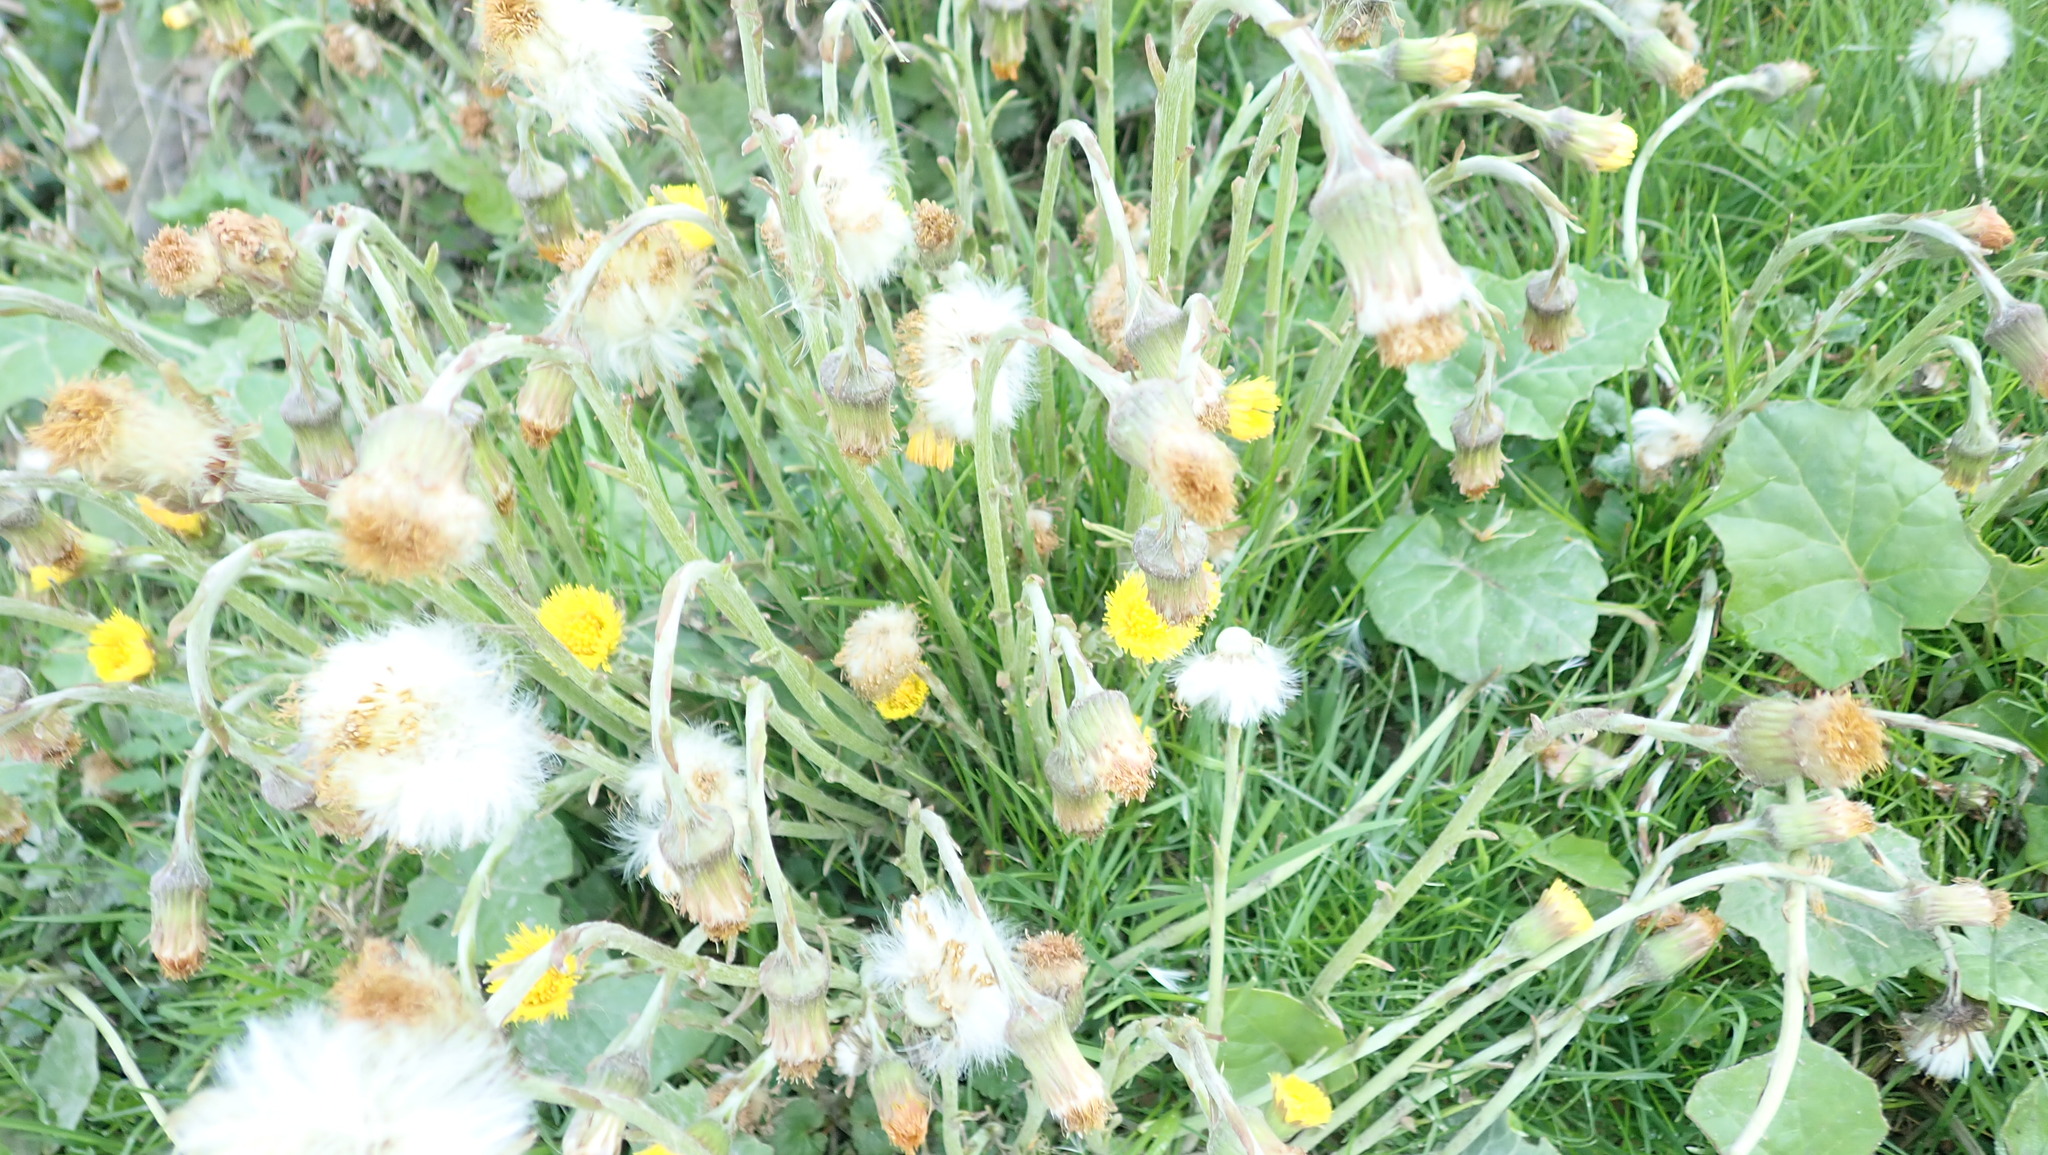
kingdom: Plantae
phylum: Tracheophyta
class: Magnoliopsida
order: Asterales
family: Asteraceae
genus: Tussilago
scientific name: Tussilago farfara
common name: Coltsfoot
